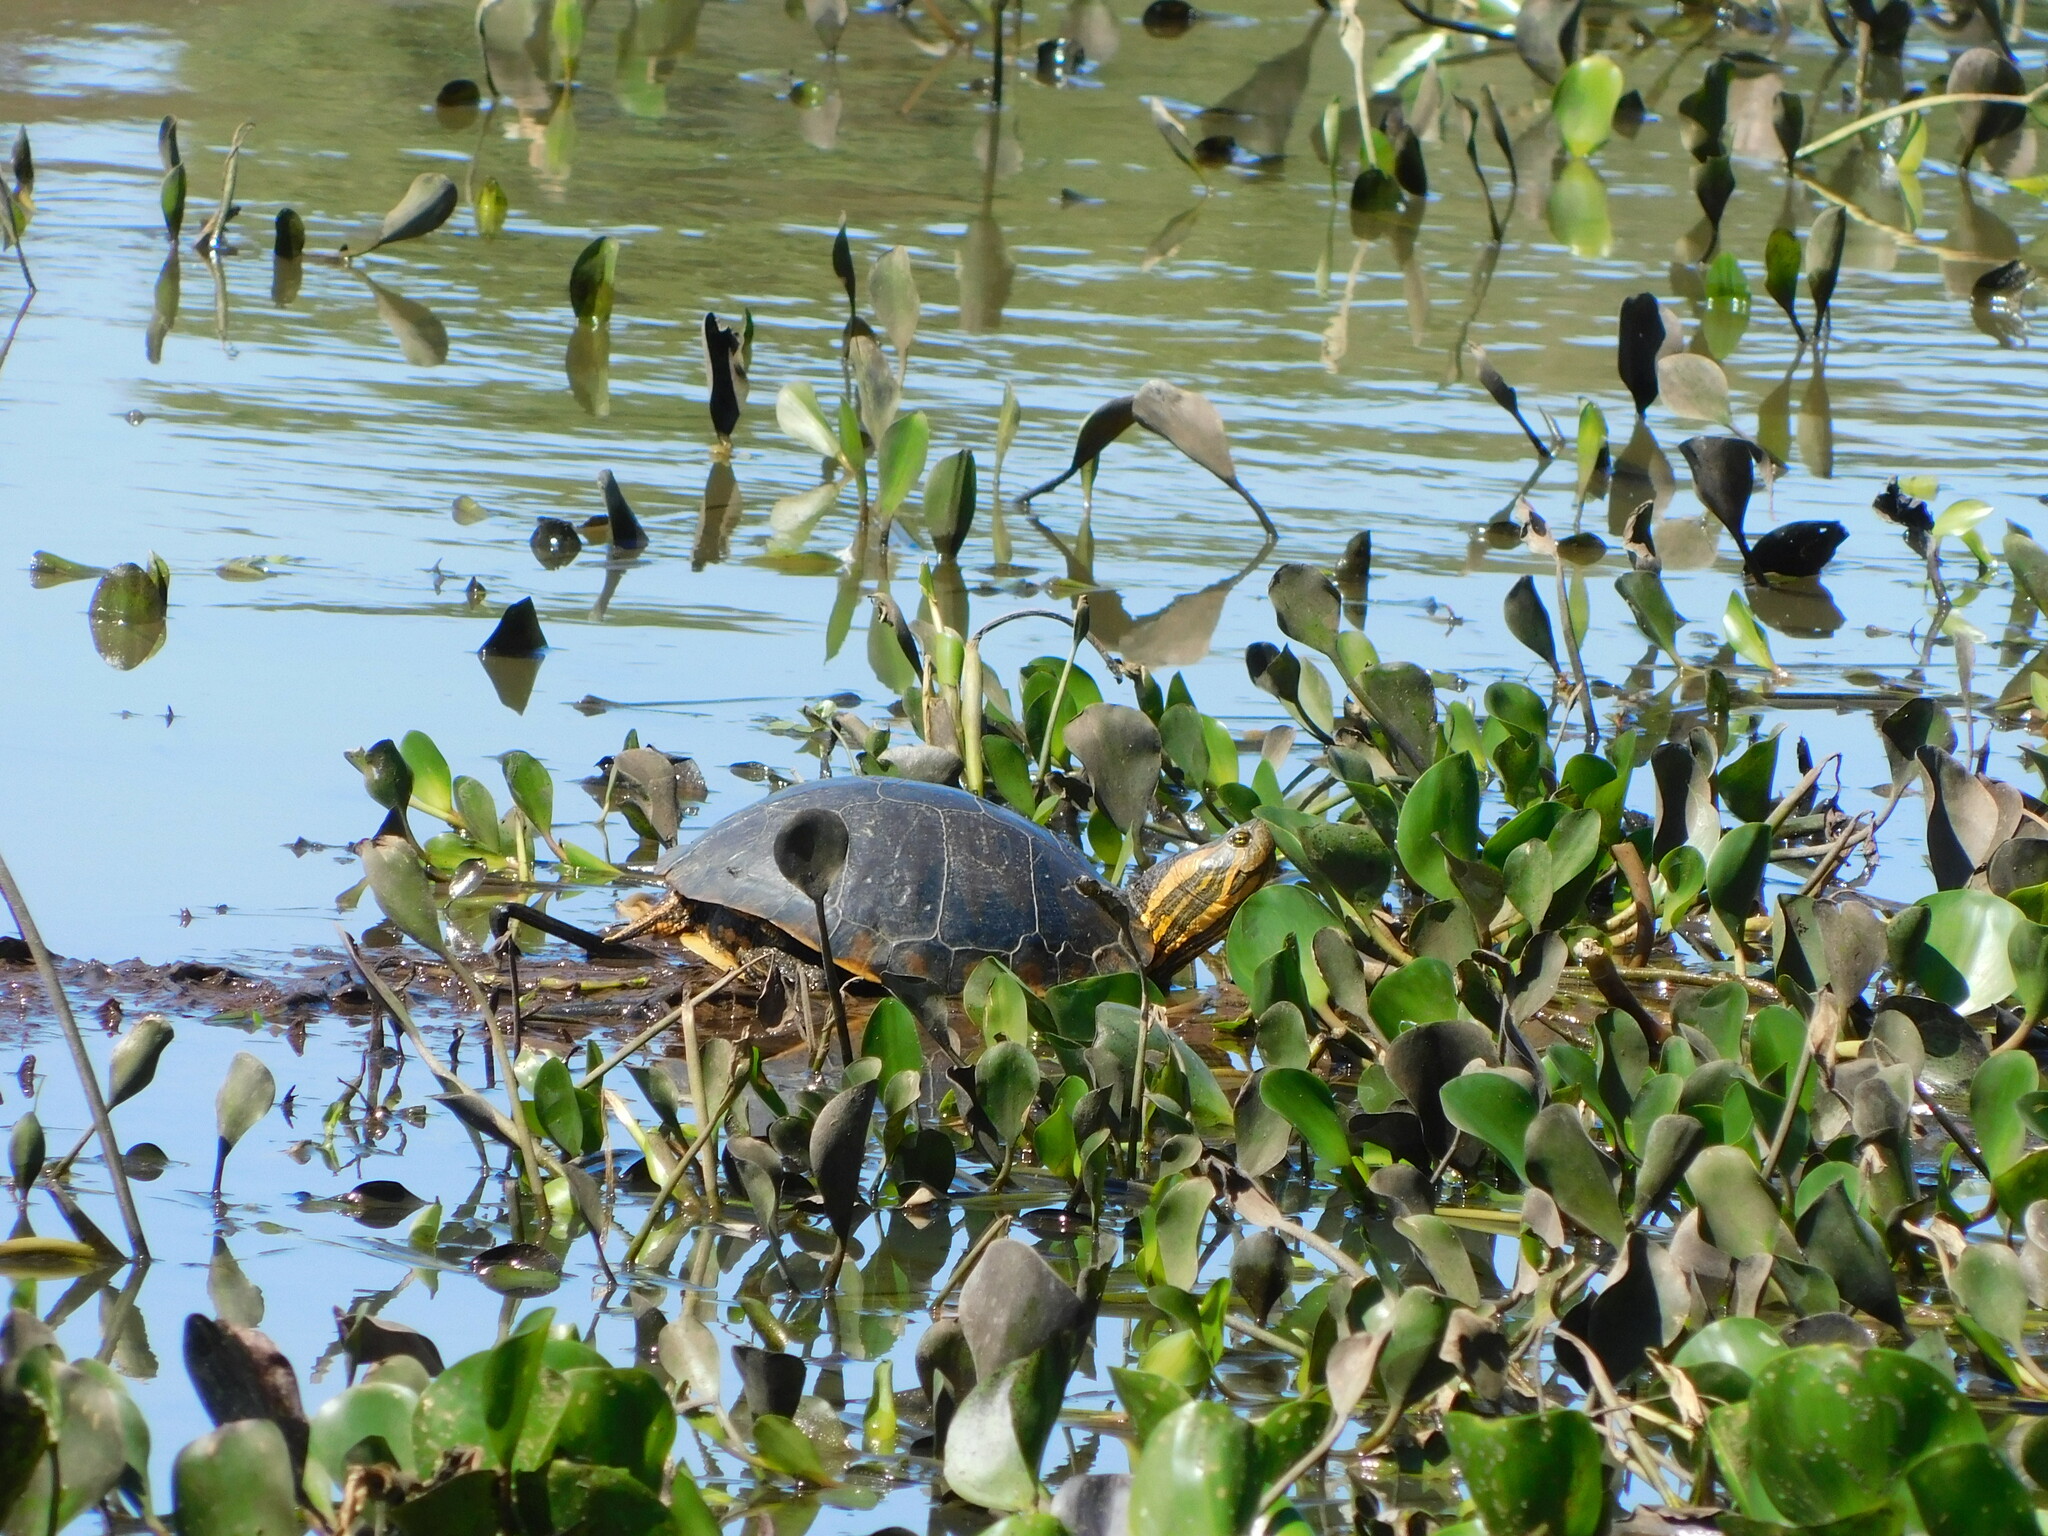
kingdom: Animalia
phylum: Chordata
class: Testudines
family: Emydidae
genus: Trachemys
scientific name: Trachemys dorbigni
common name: Black-bellied slider
